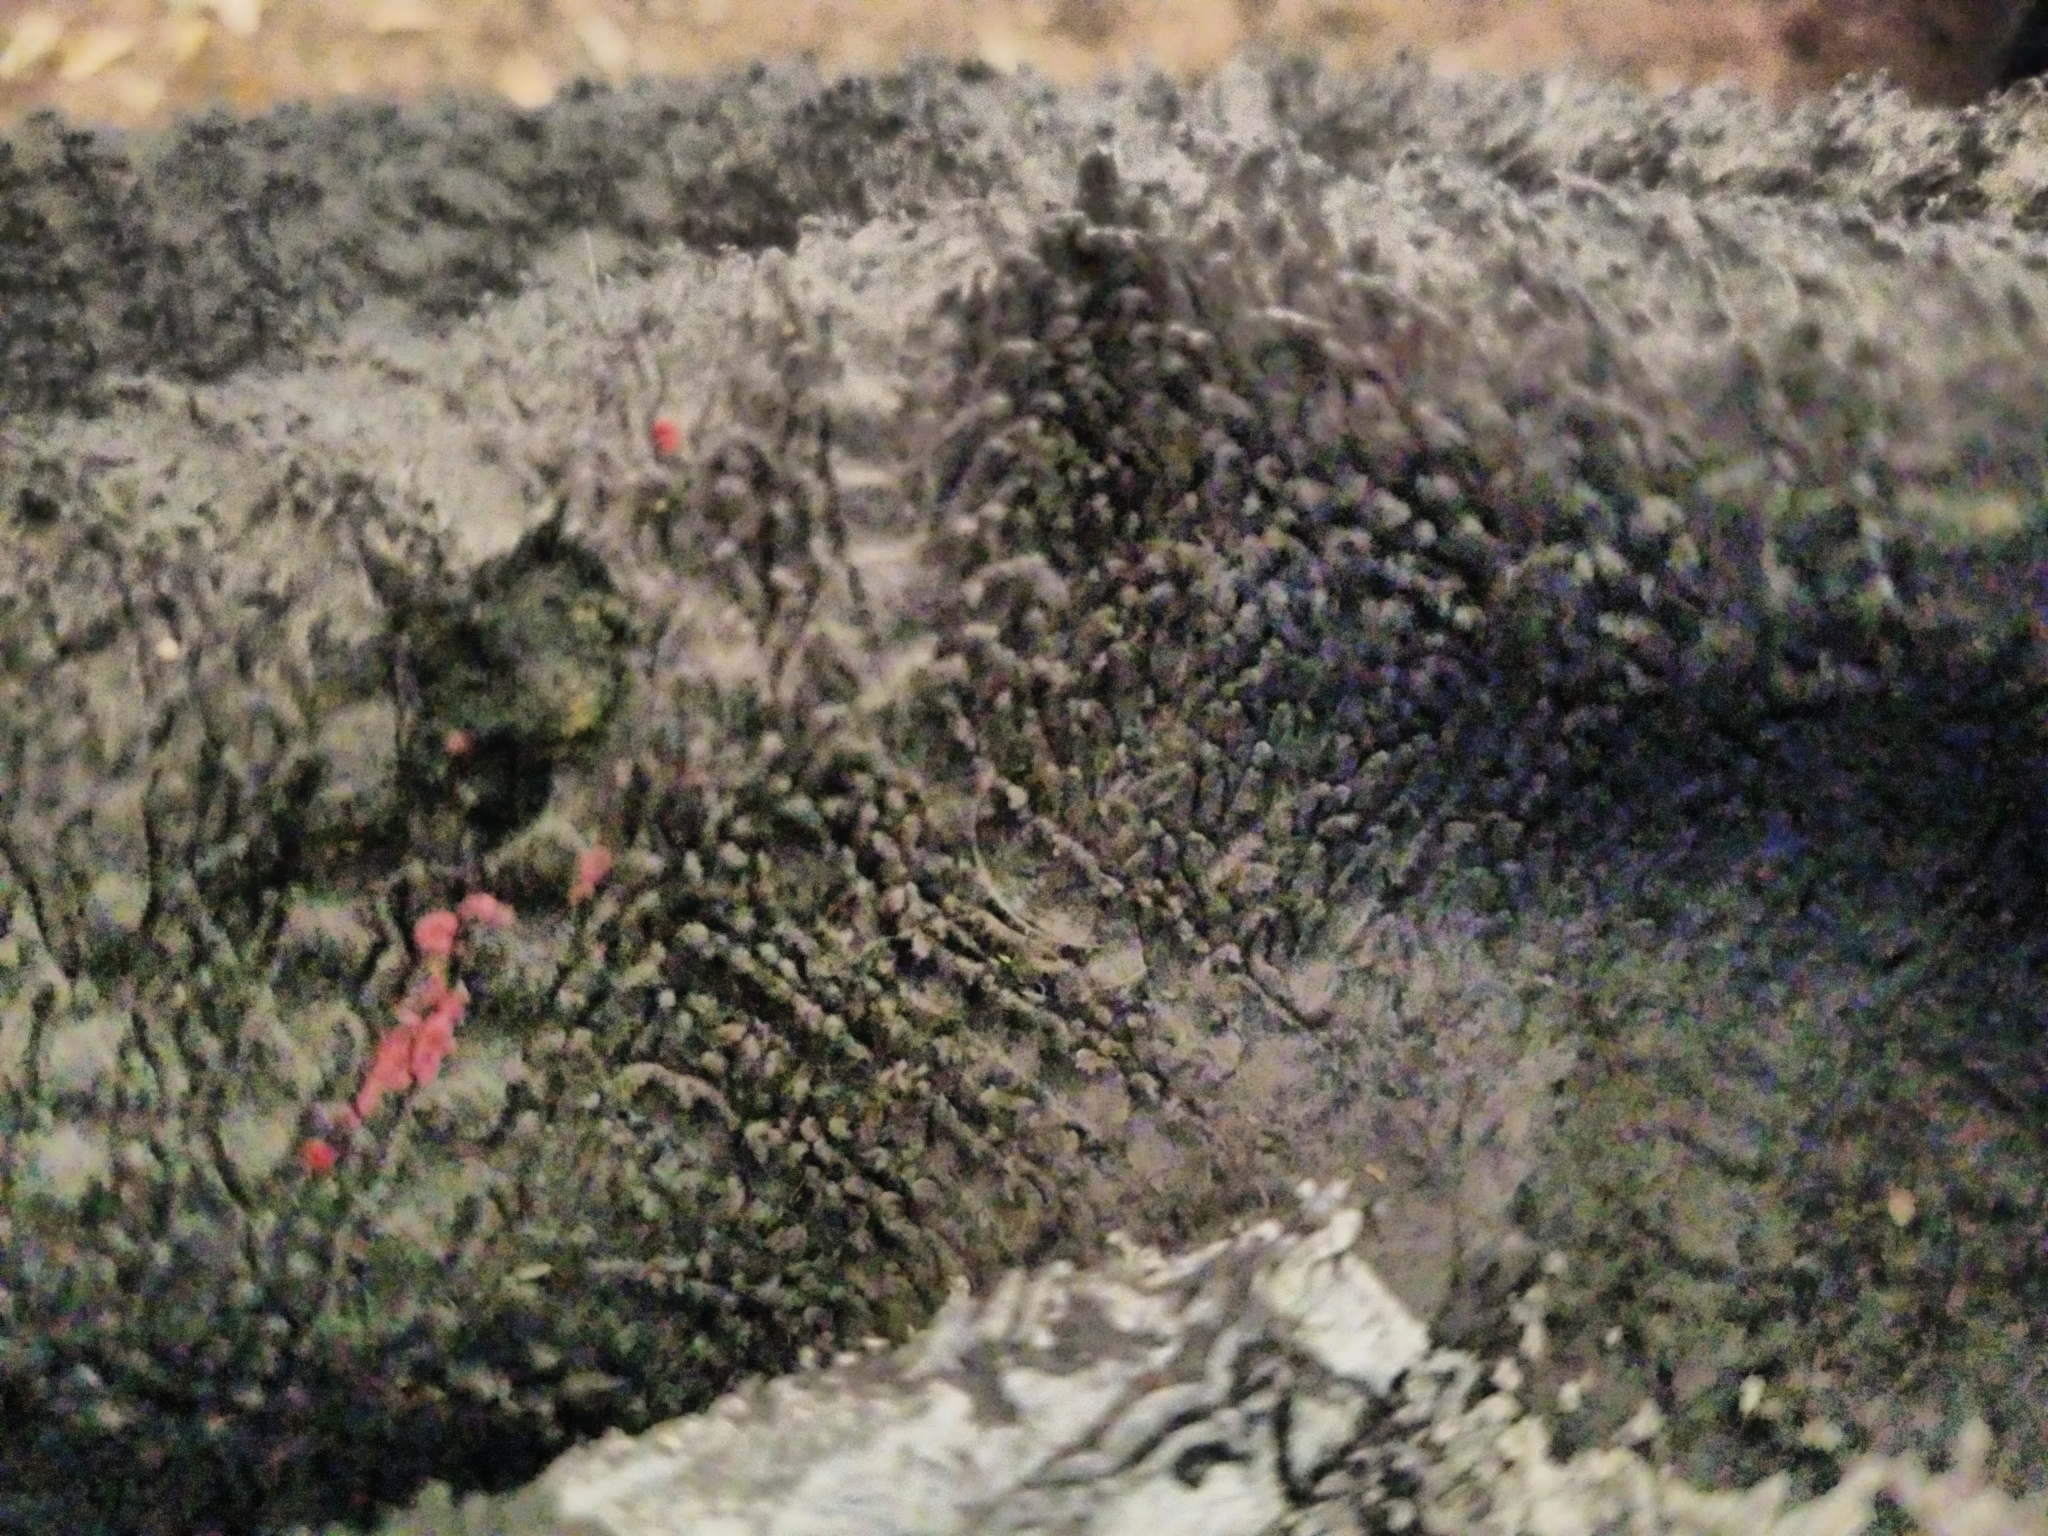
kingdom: Fungi
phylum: Ascomycota
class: Sordariomycetes
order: Diaporthales
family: Cryphonectriaceae
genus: Amphilogia
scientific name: Amphilogia gyrosa
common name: Orange hobnail canker
